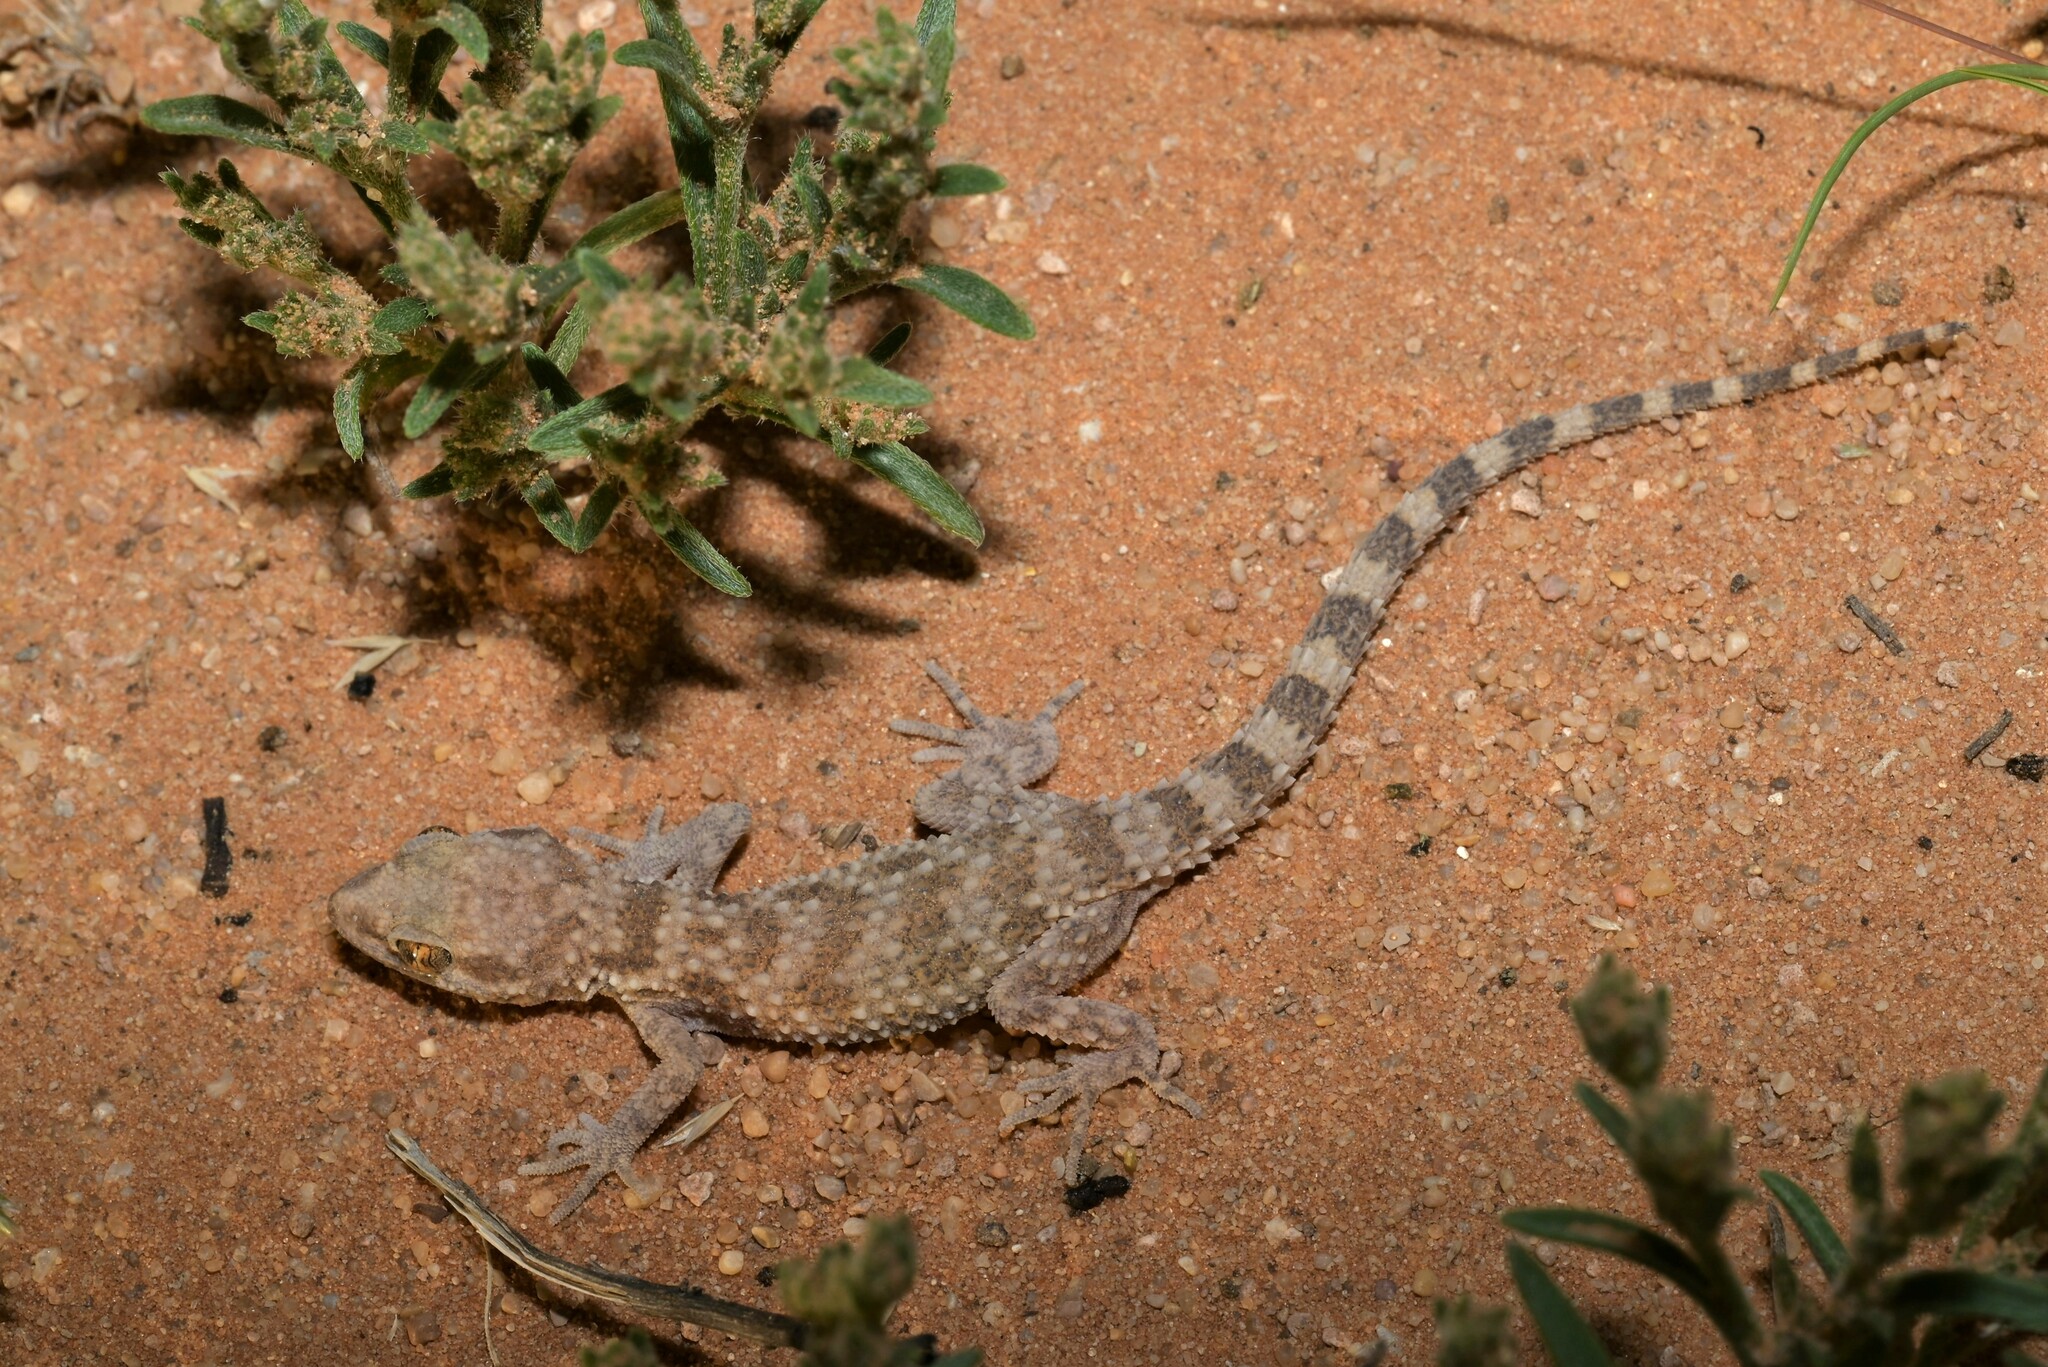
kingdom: Animalia
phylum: Chordata
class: Squamata
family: Gekkonidae
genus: Bunopus
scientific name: Bunopus tuberculatus
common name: Southern tuberculated gecko
